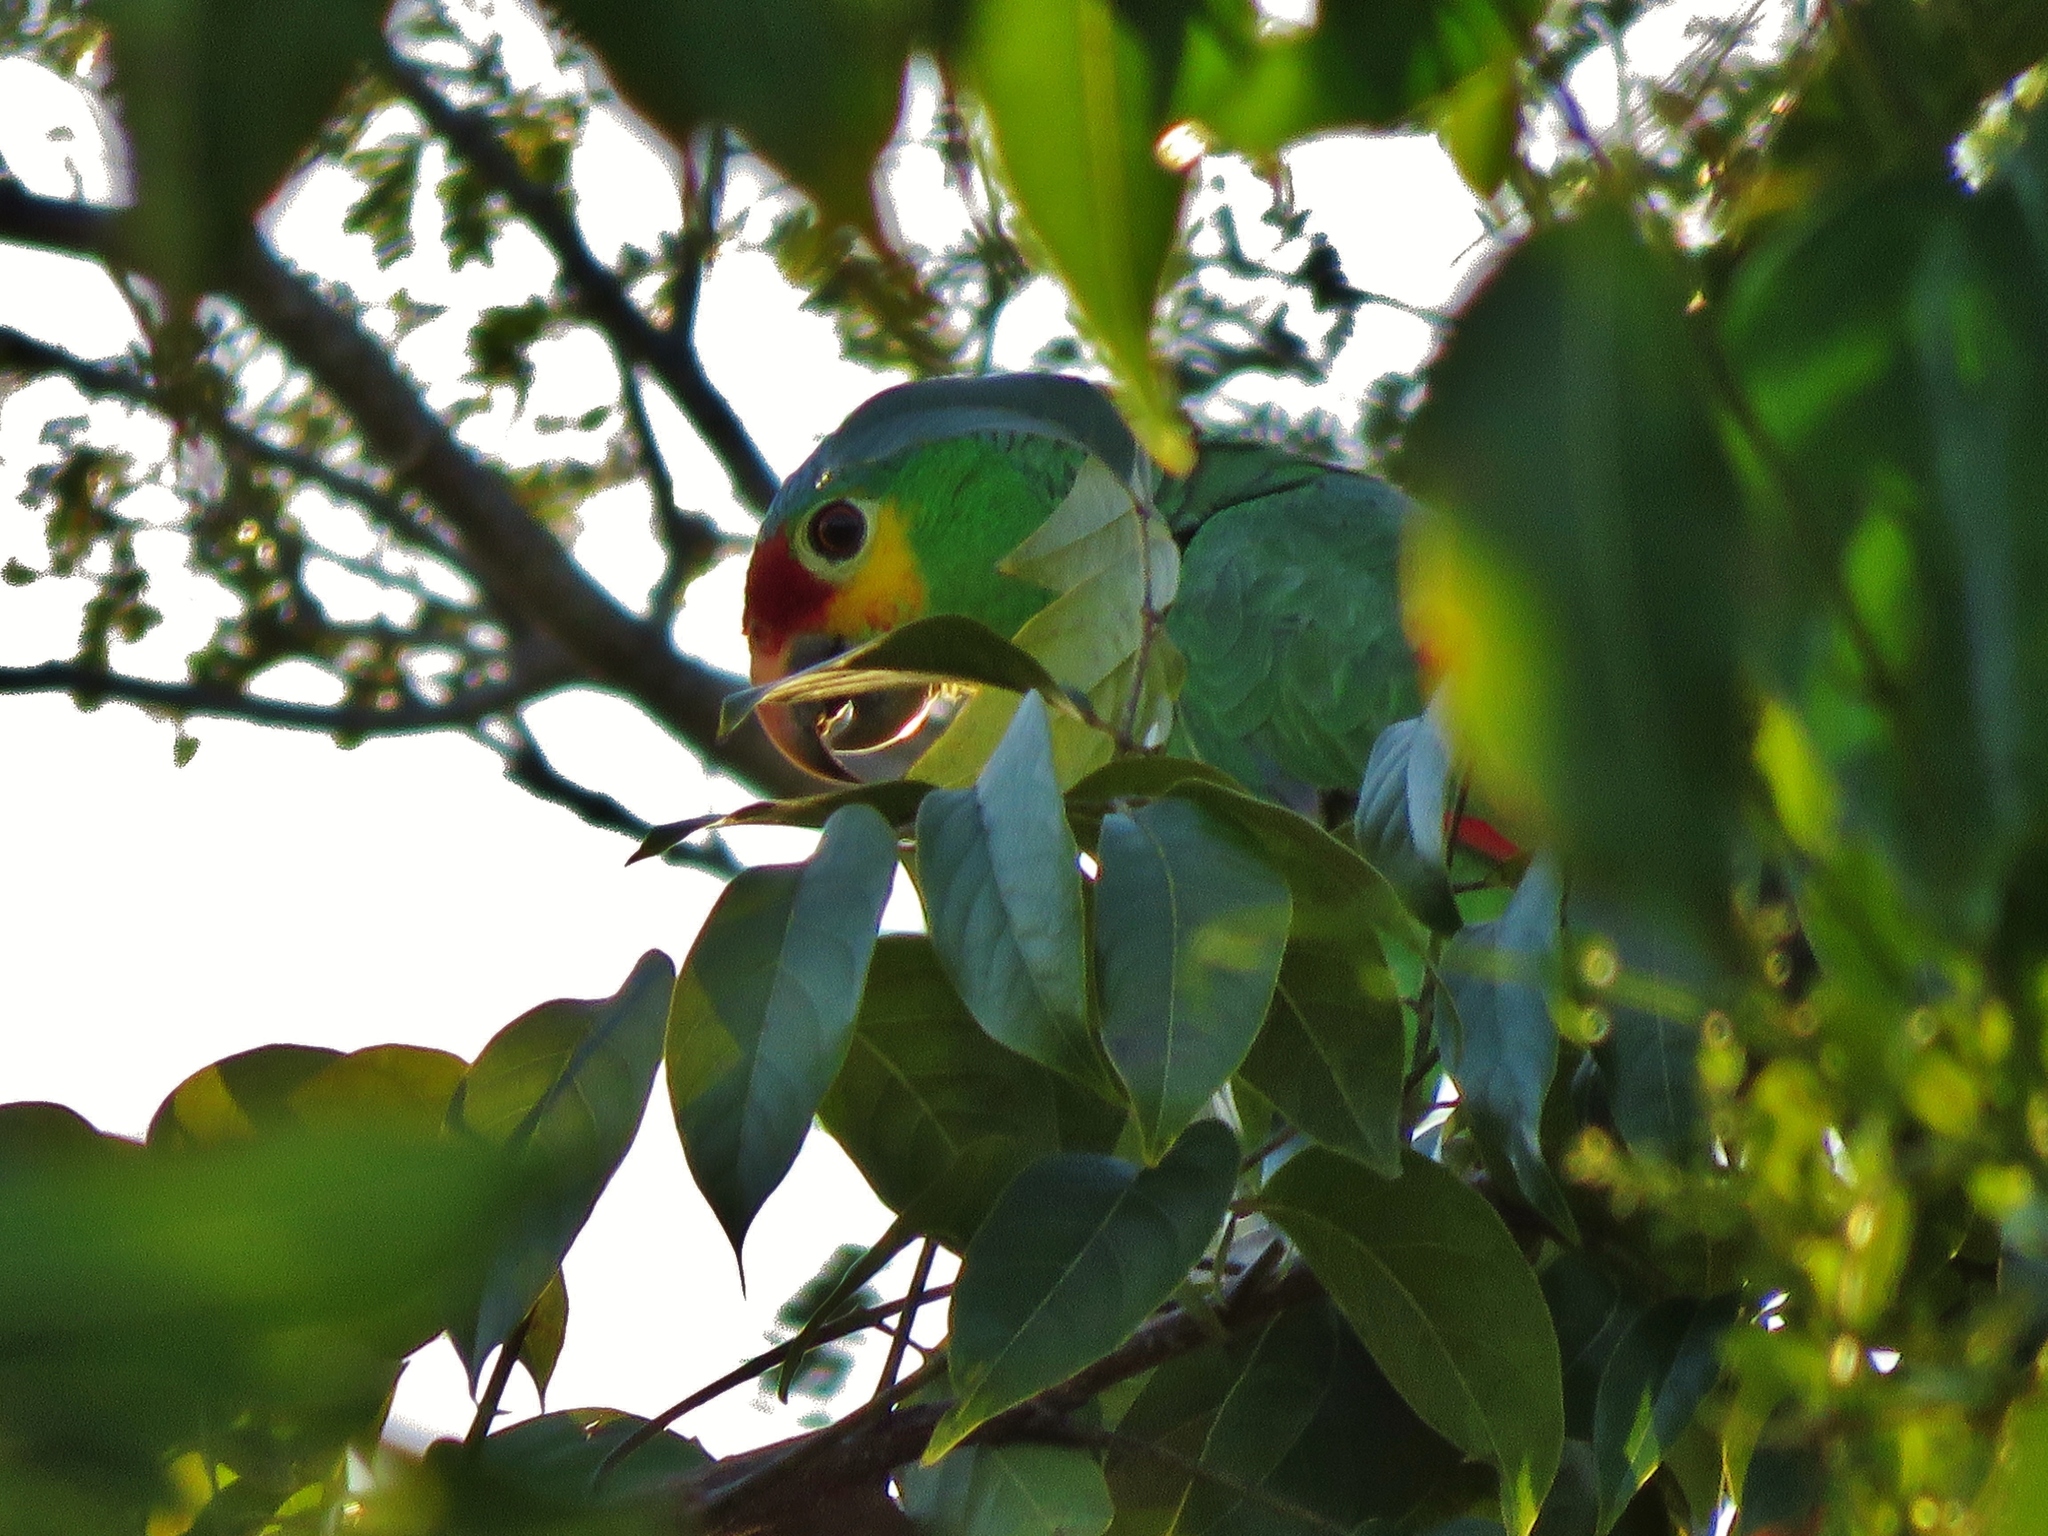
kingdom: Animalia
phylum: Chordata
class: Aves
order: Psittaciformes
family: Psittacidae
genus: Amazona
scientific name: Amazona autumnalis
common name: Red-lored amazon
